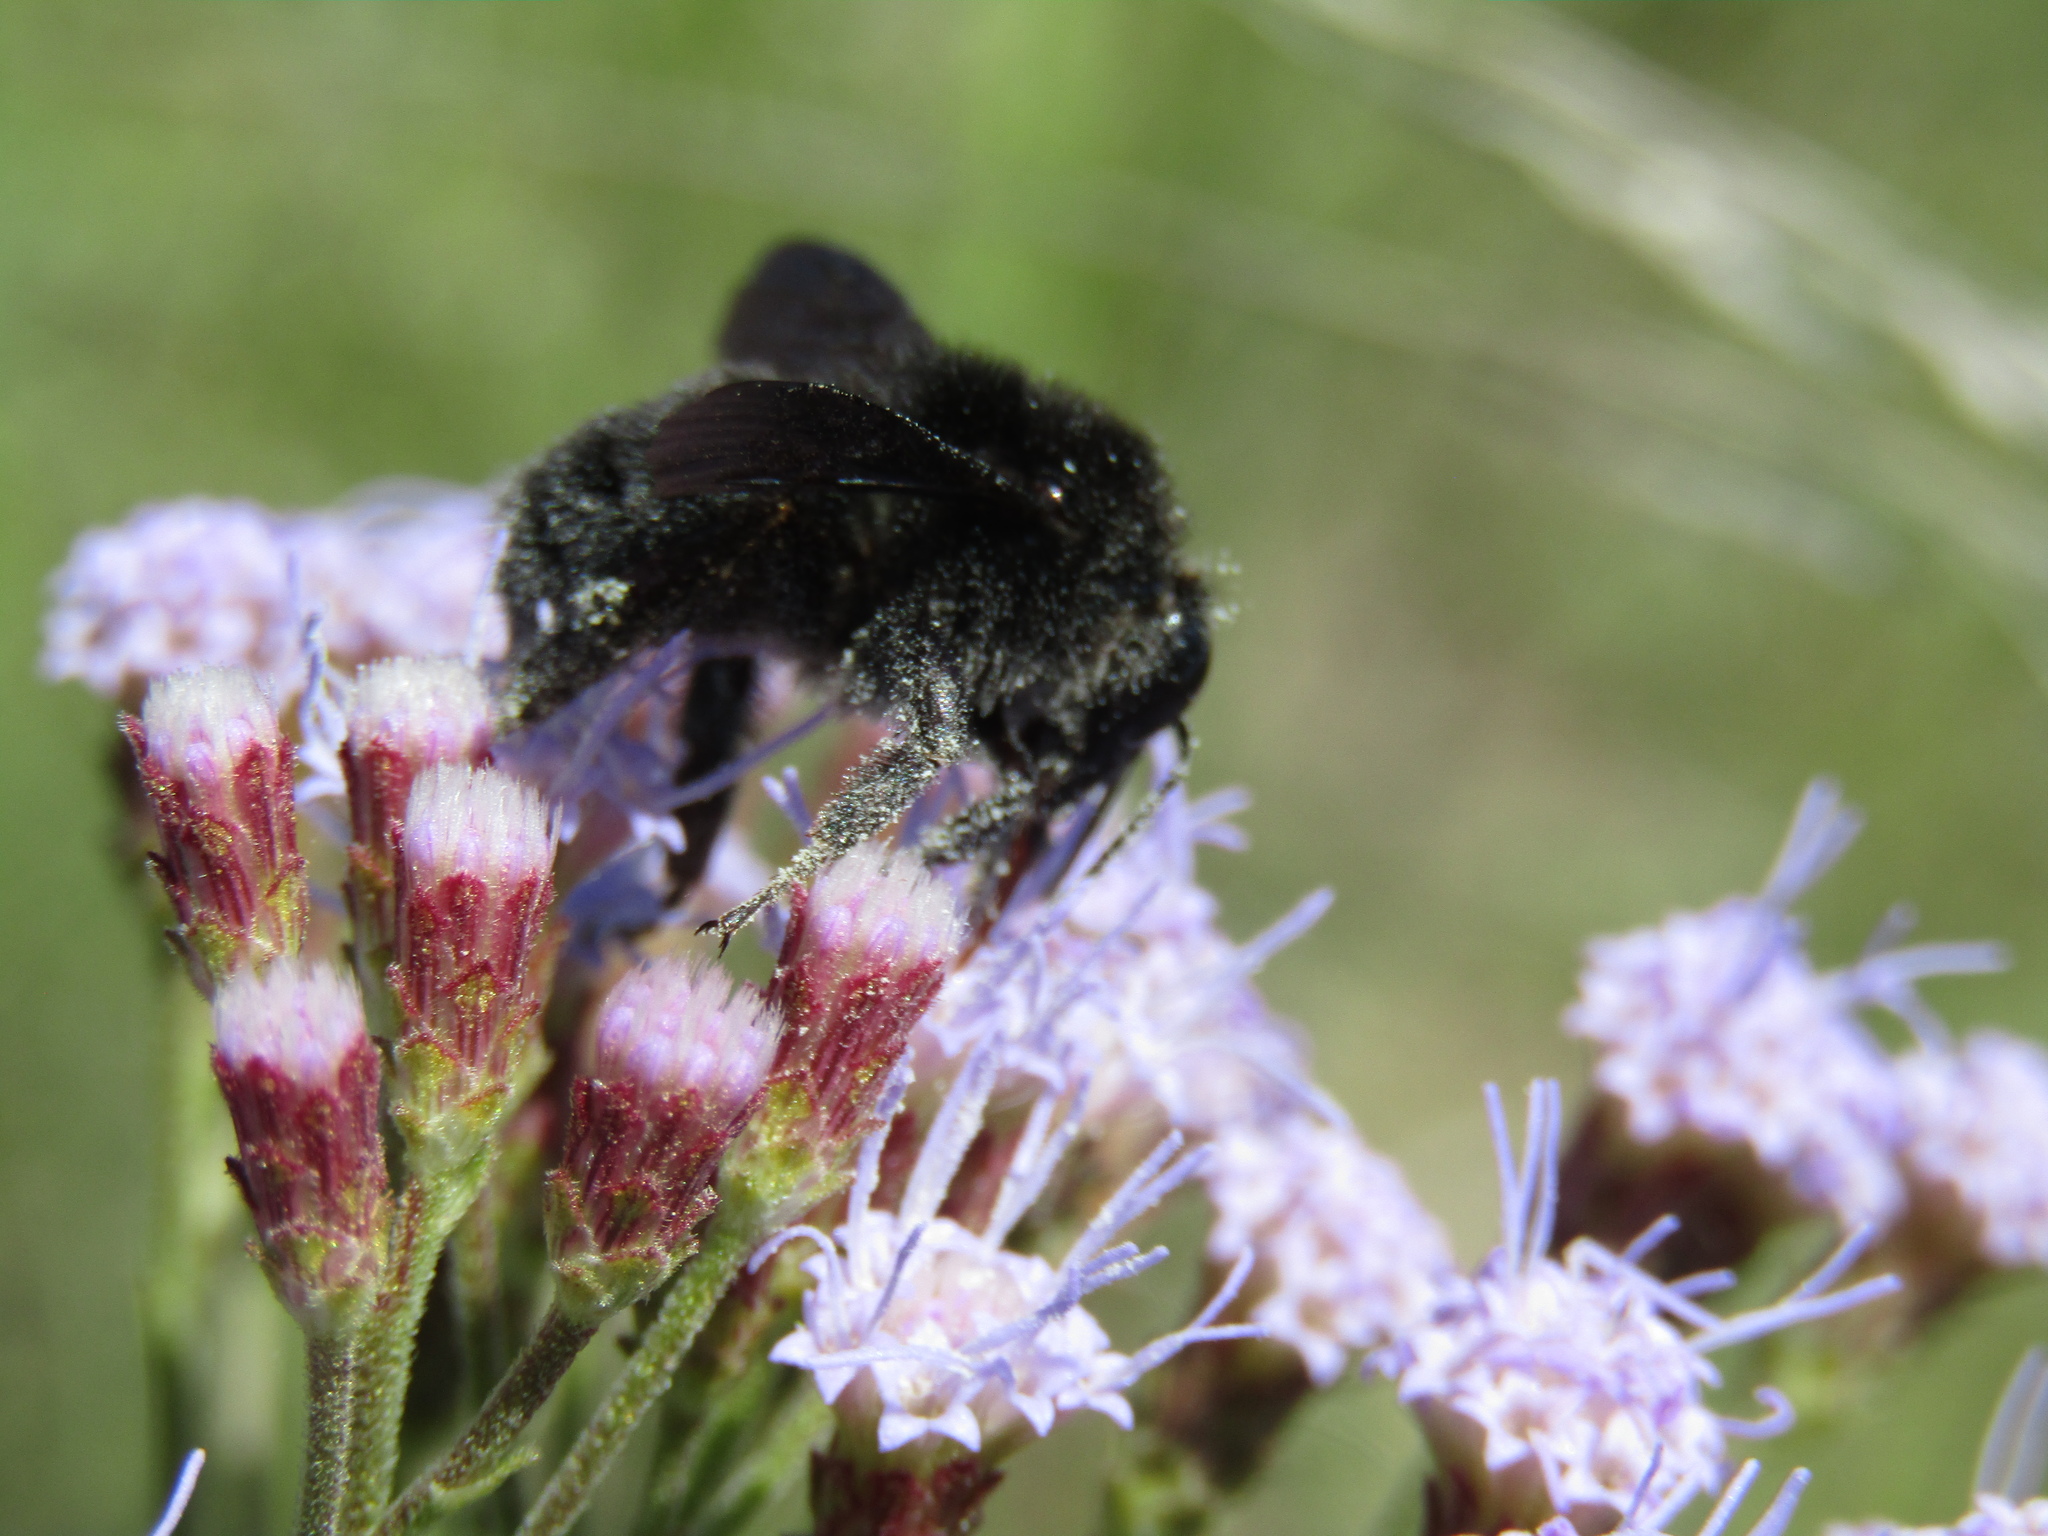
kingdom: Animalia
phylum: Arthropoda
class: Insecta
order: Hymenoptera
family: Apidae
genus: Bombus
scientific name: Bombus pauloensis
